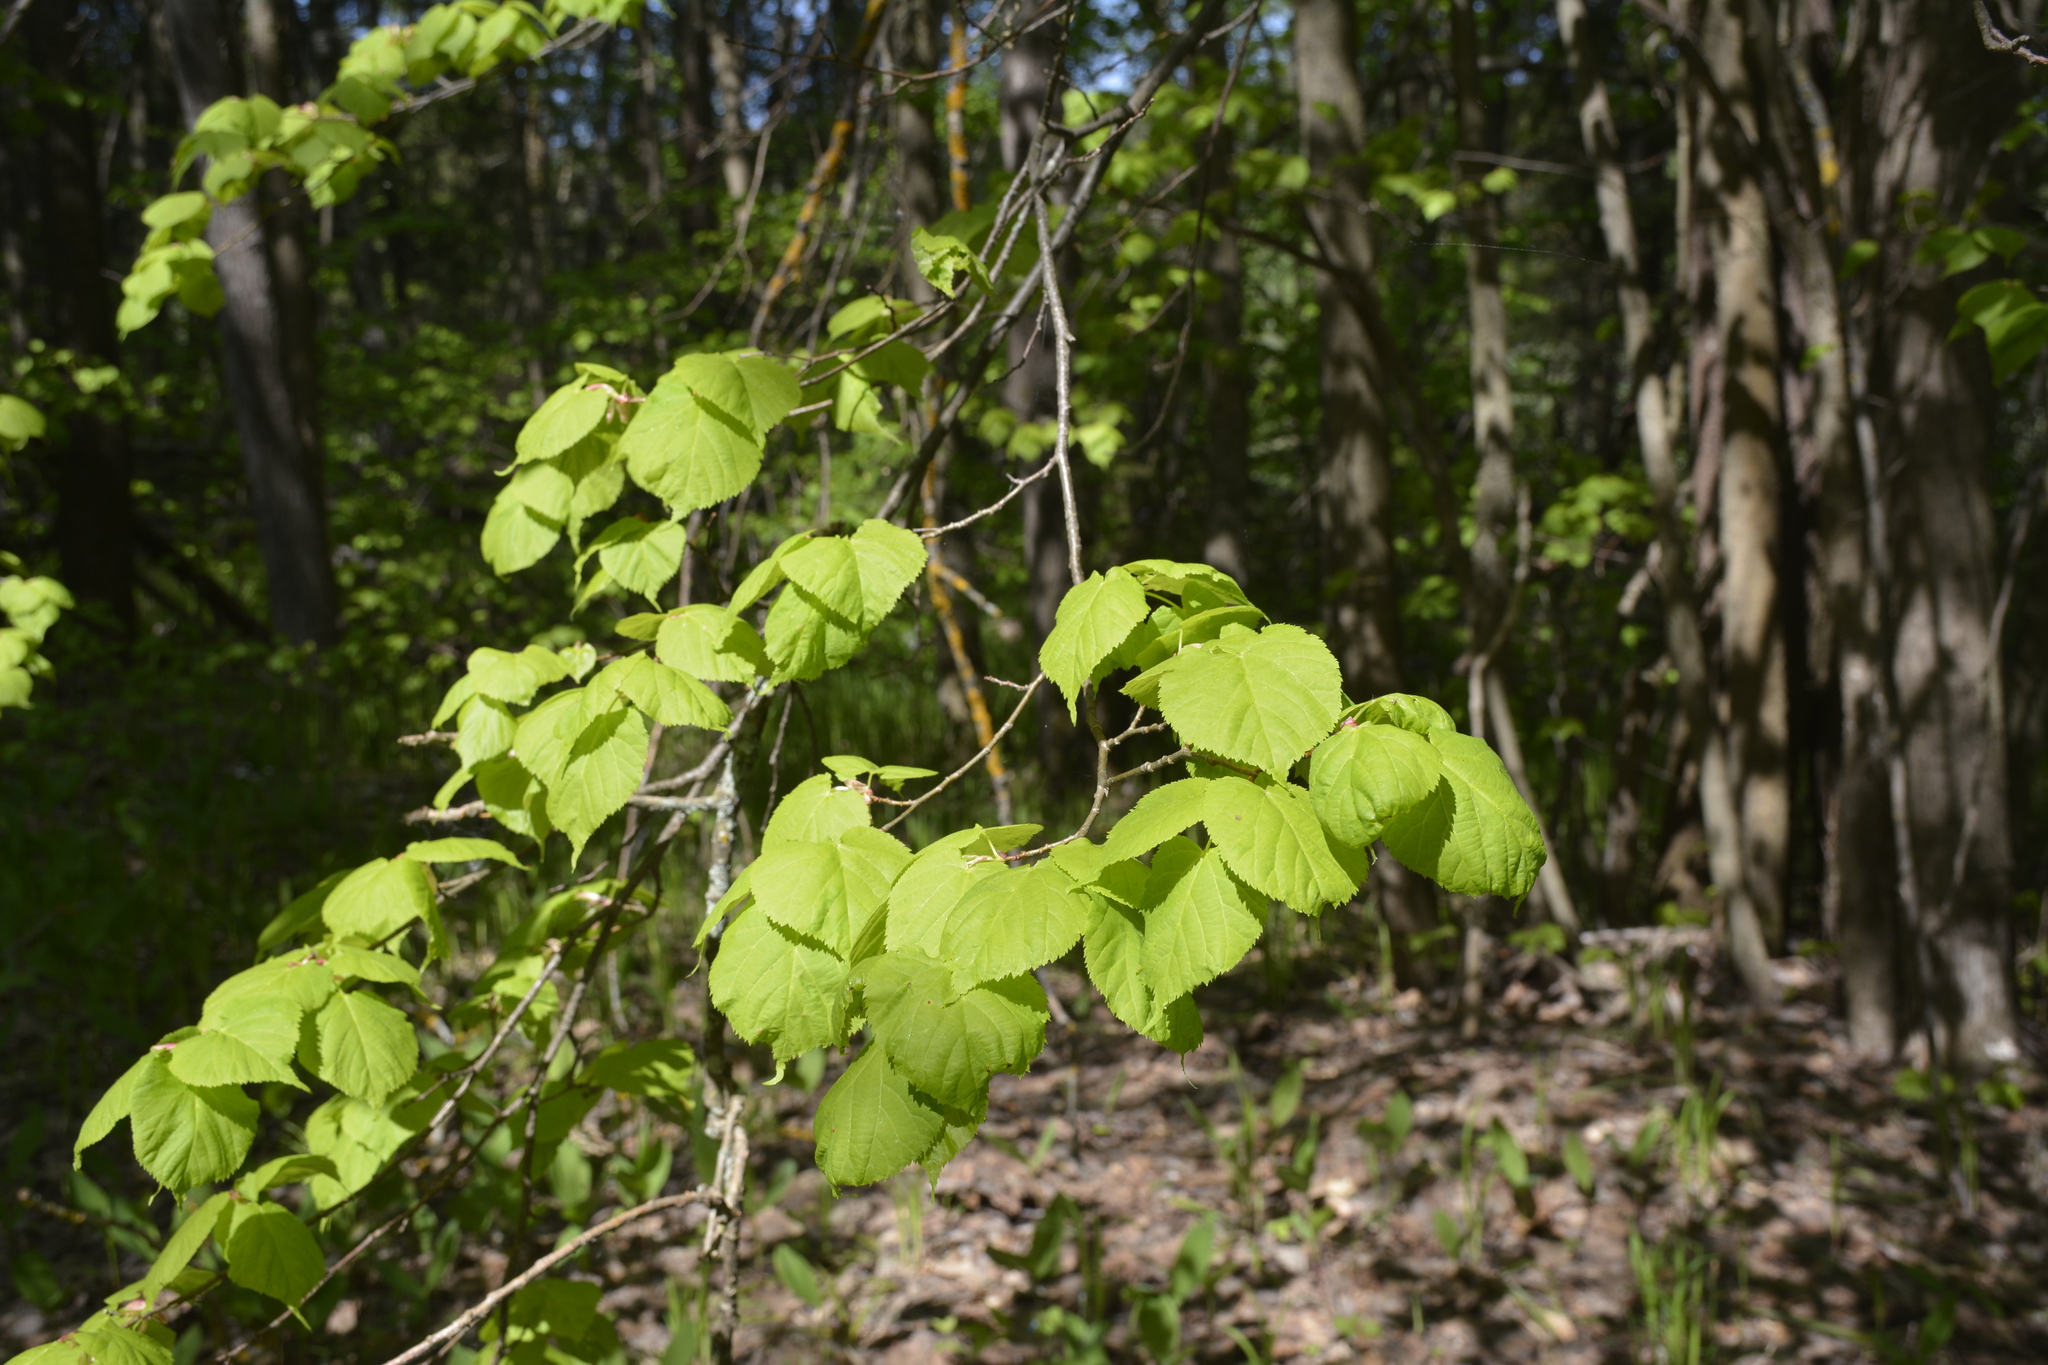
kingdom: Plantae
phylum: Tracheophyta
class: Magnoliopsida
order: Malvales
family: Malvaceae
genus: Tilia
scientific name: Tilia cordata
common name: Small-leaved lime
